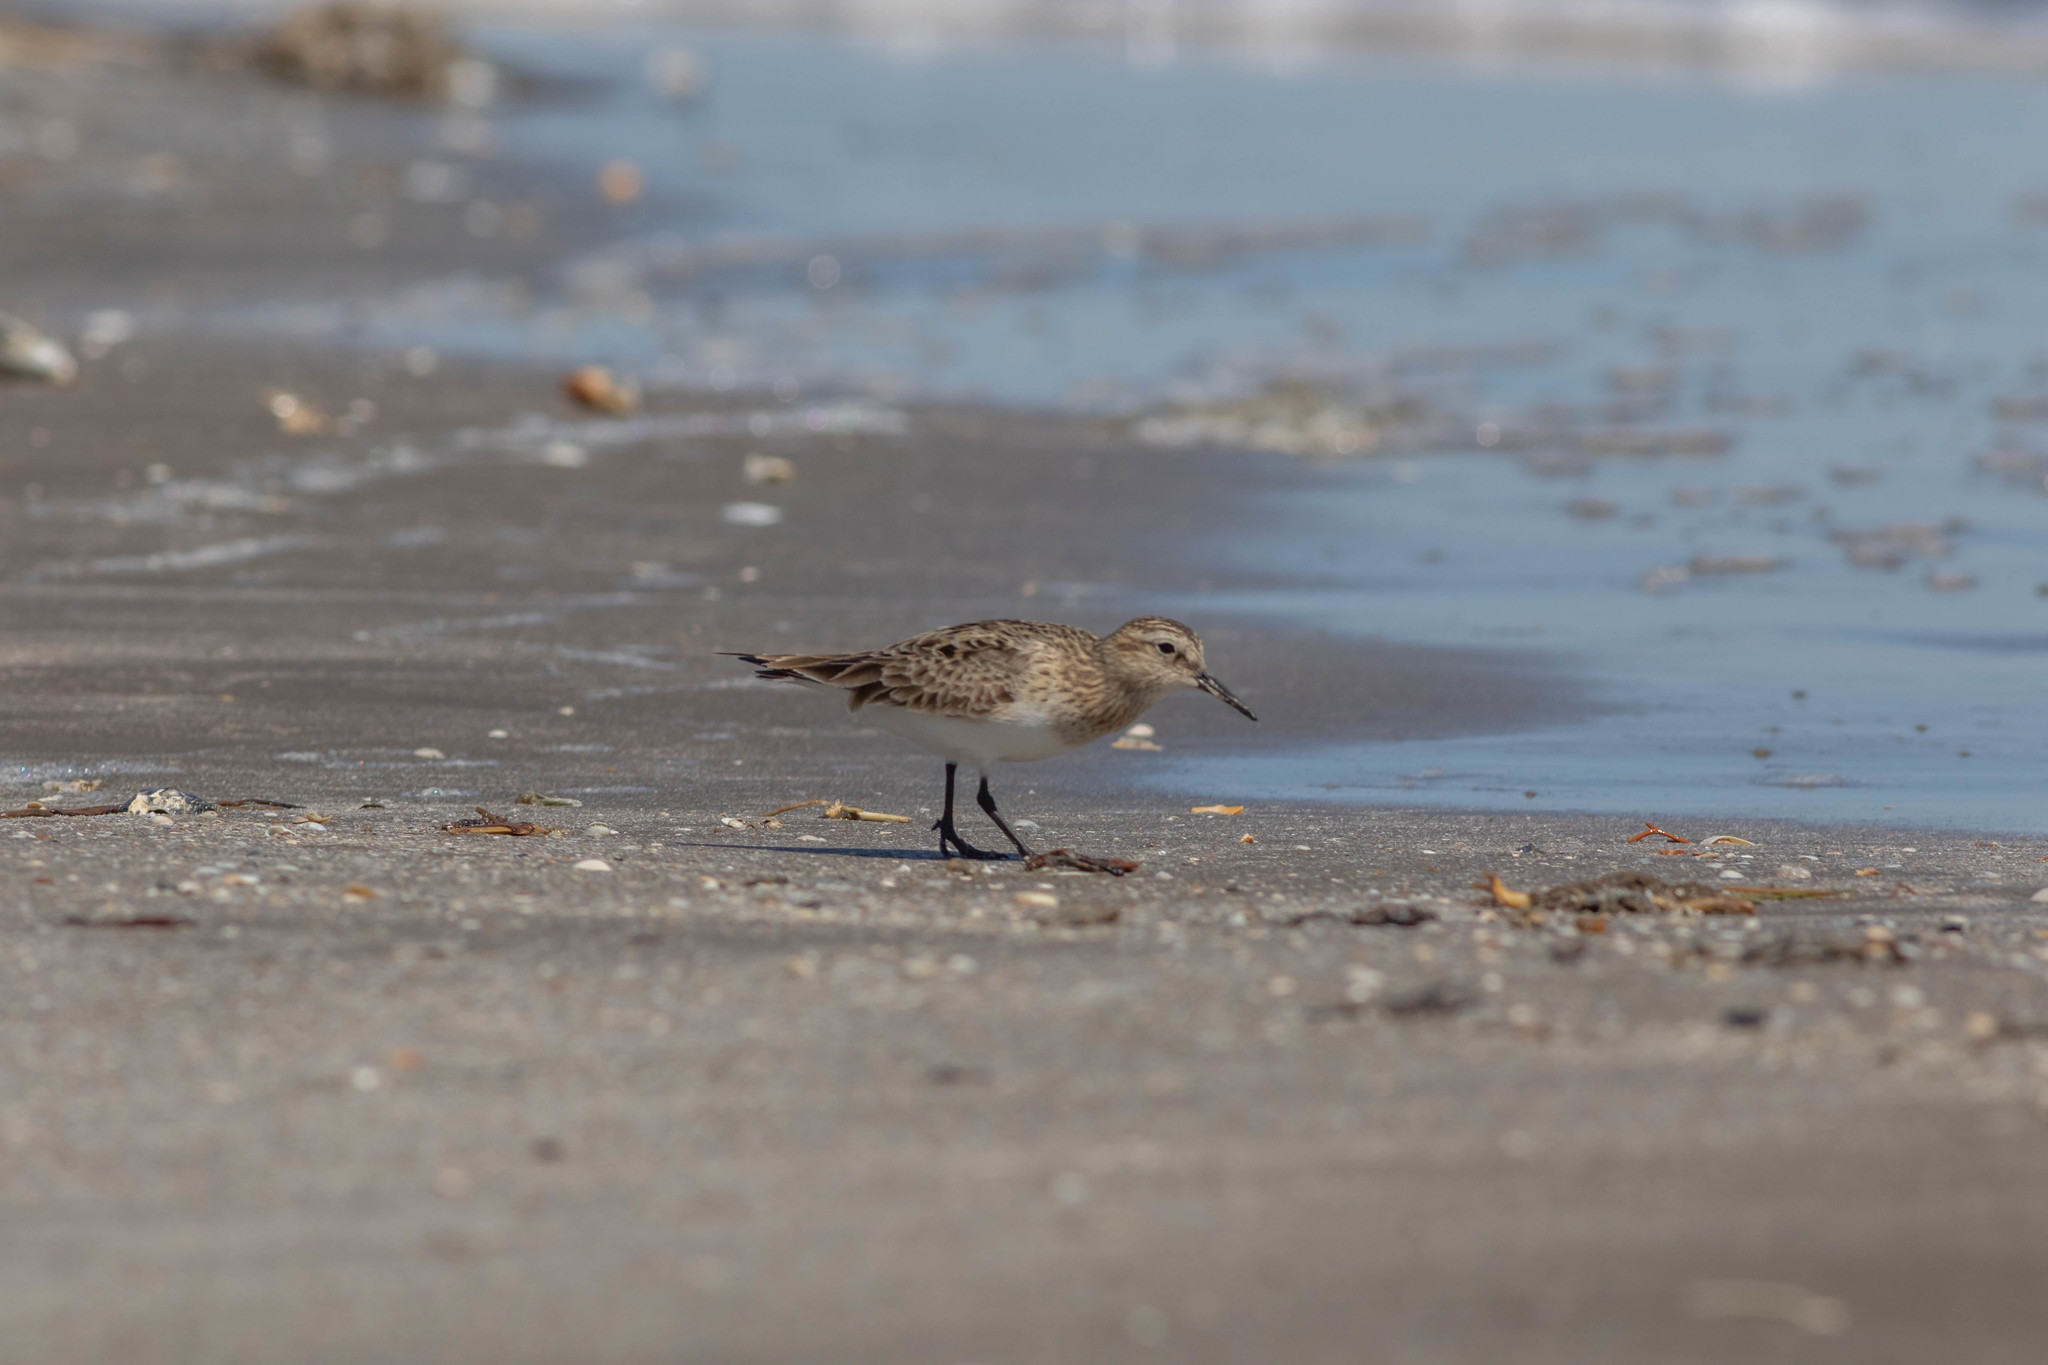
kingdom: Animalia
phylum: Chordata
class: Aves
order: Charadriiformes
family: Scolopacidae
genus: Calidris
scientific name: Calidris bairdii
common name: Baird's sandpiper
